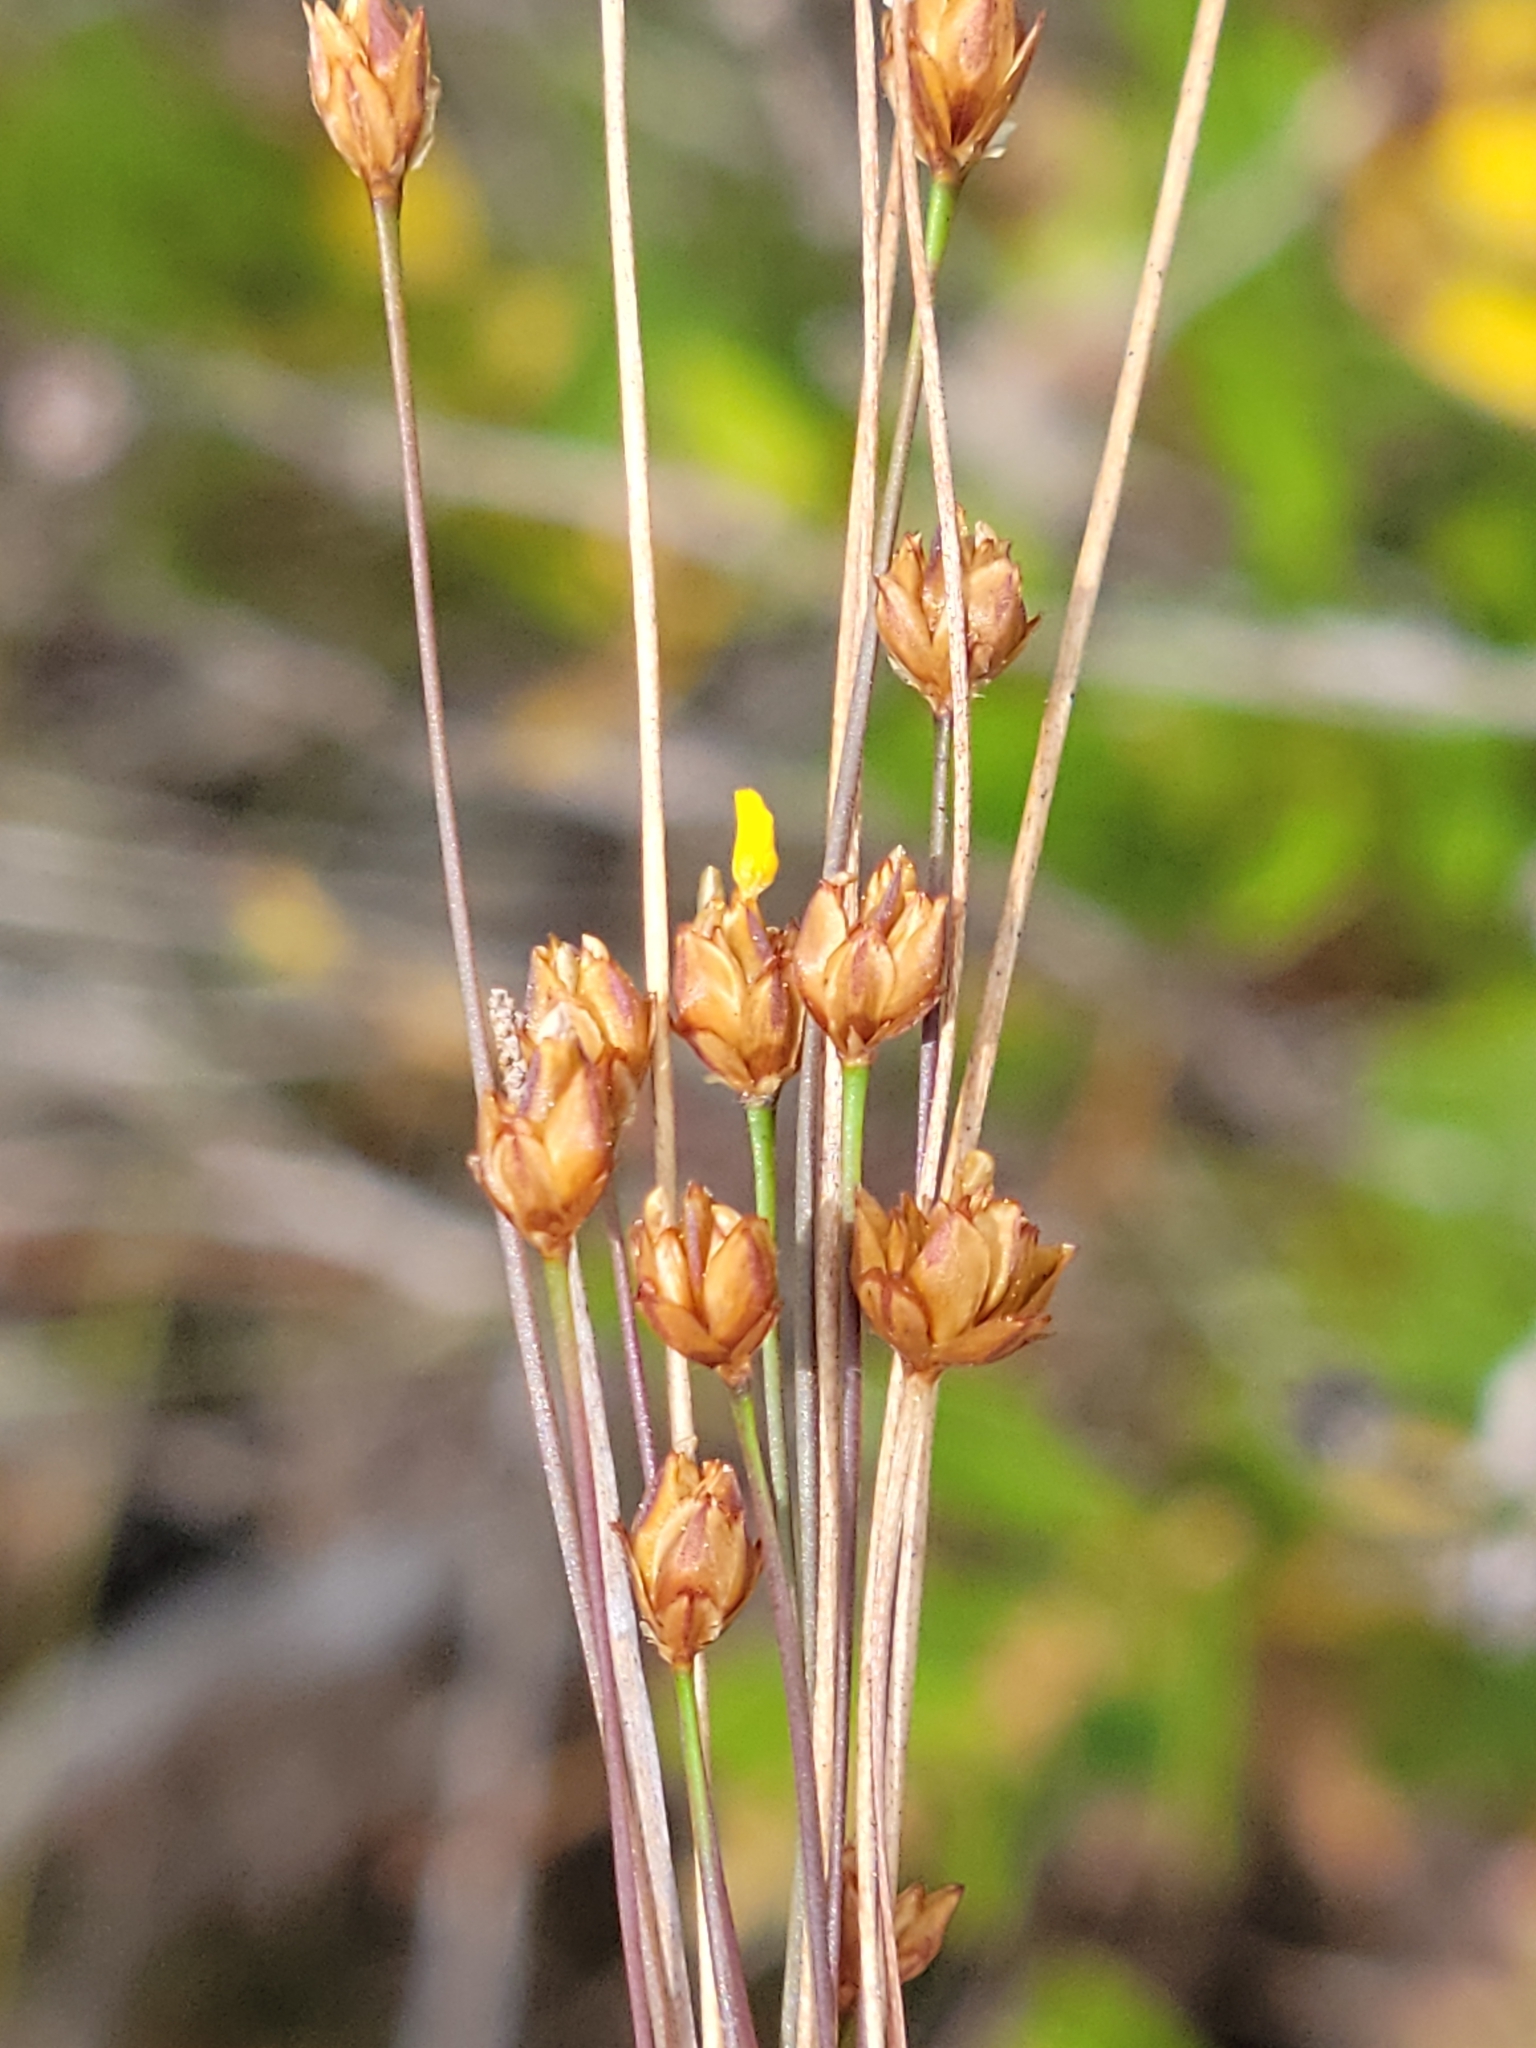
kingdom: Plantae
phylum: Tracheophyta
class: Liliopsida
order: Poales
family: Xyridaceae
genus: Xyris
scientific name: Xyris brevifolia
